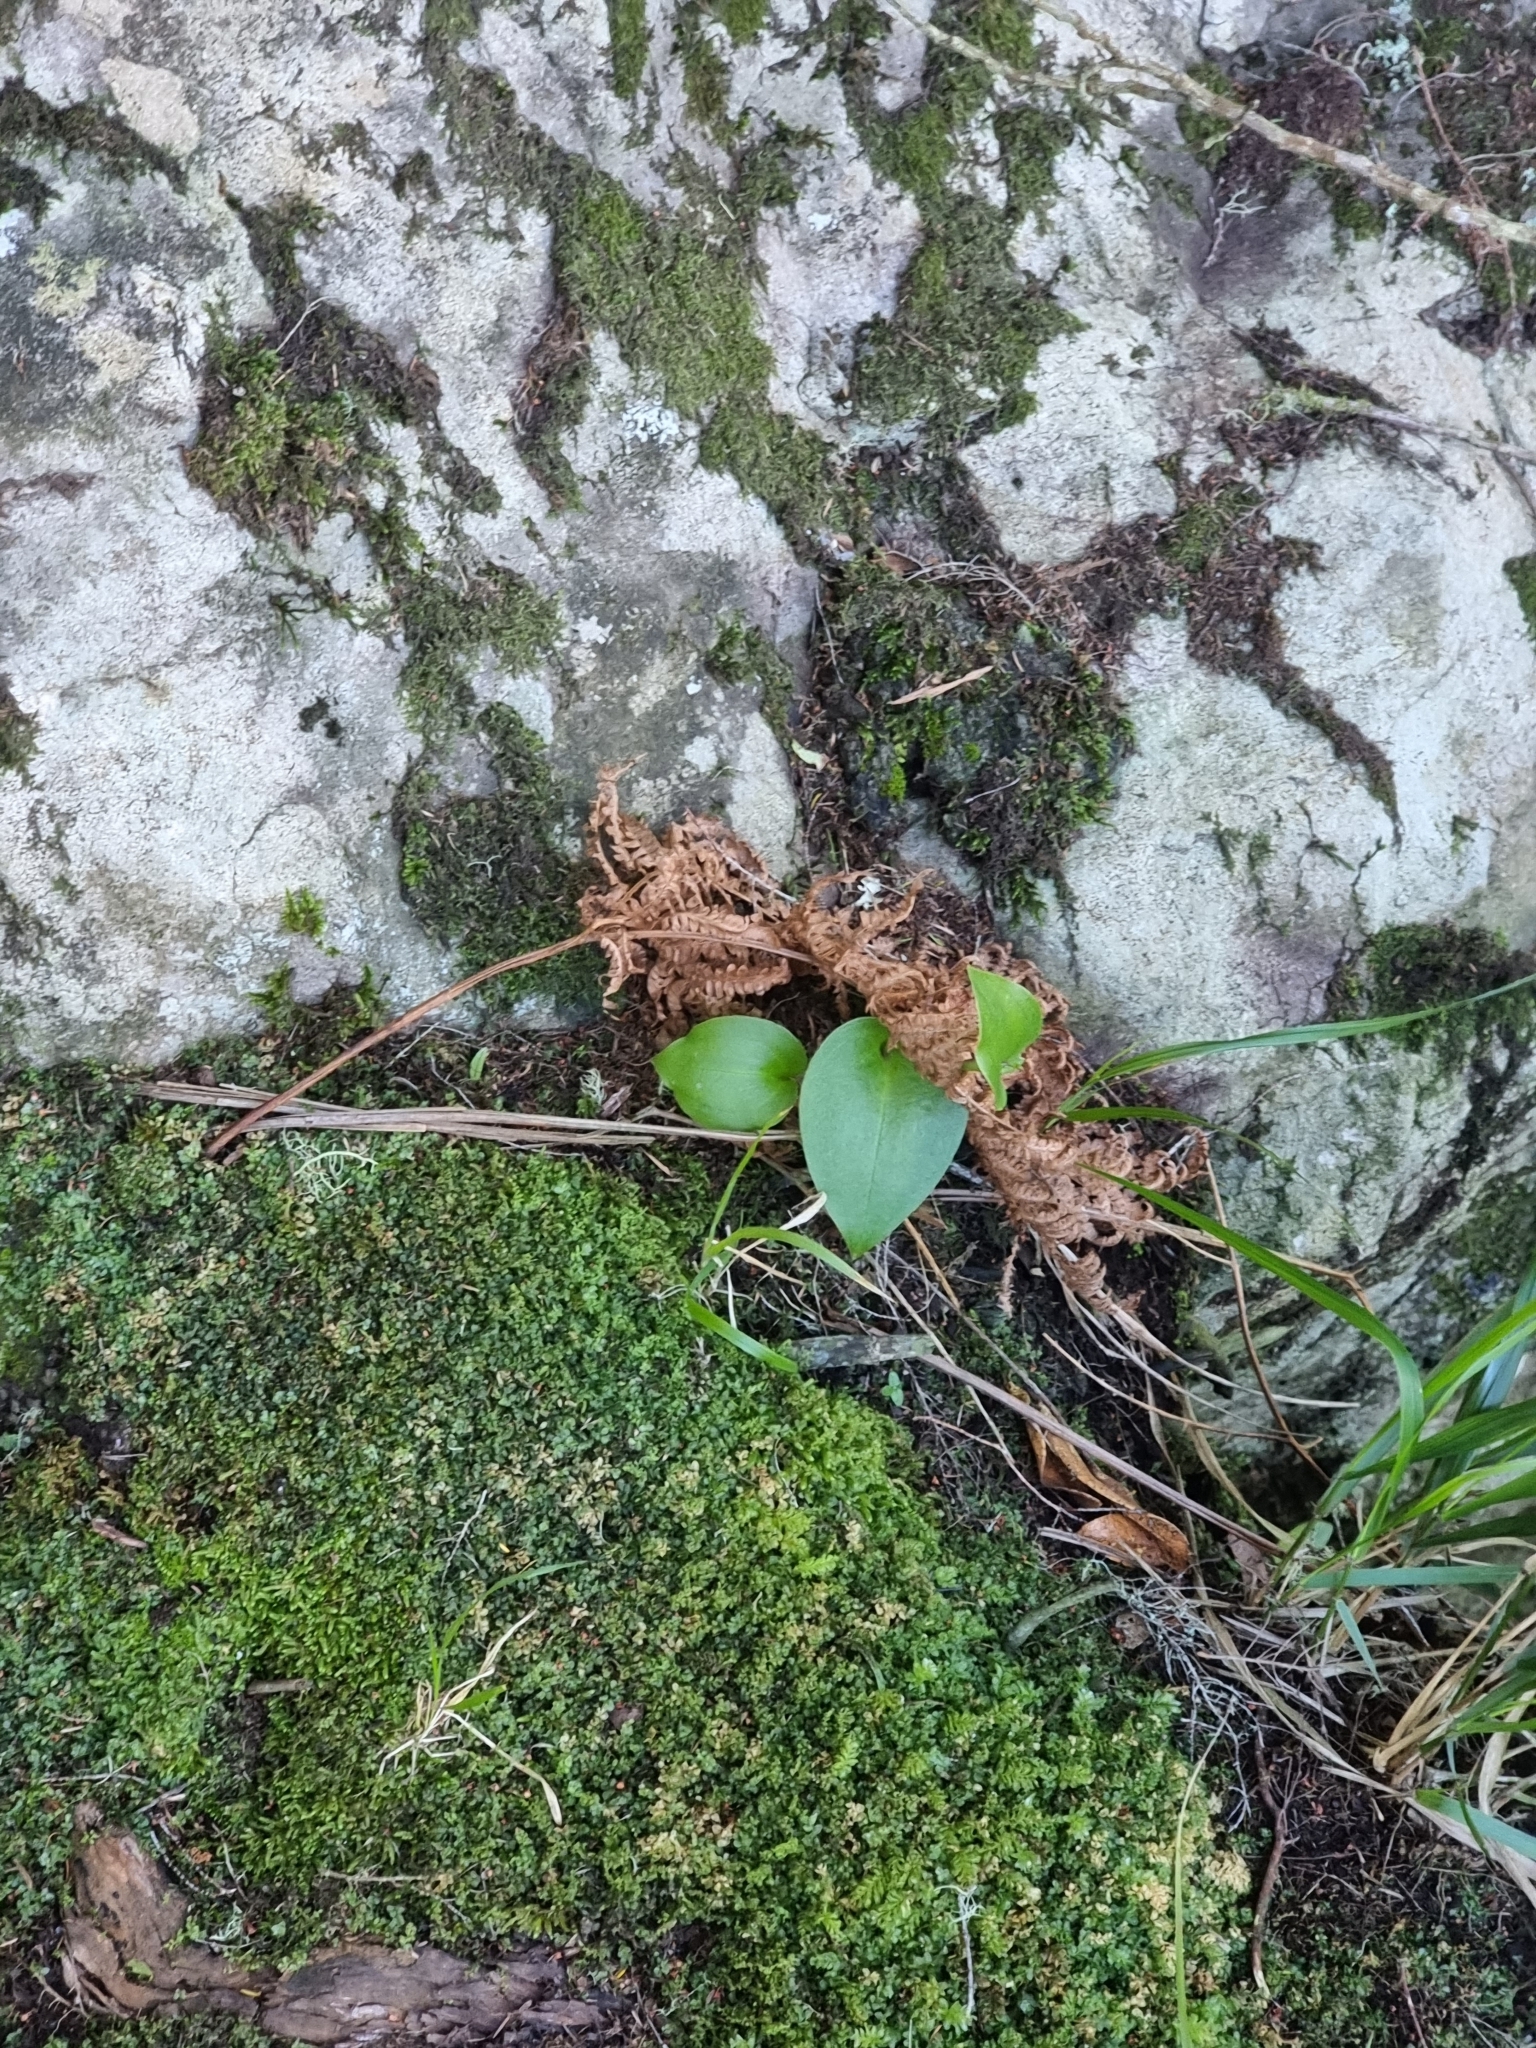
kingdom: Plantae
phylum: Tracheophyta
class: Liliopsida
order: Asparagales
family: Orchidaceae
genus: Gennaria
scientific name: Gennaria diphylla
